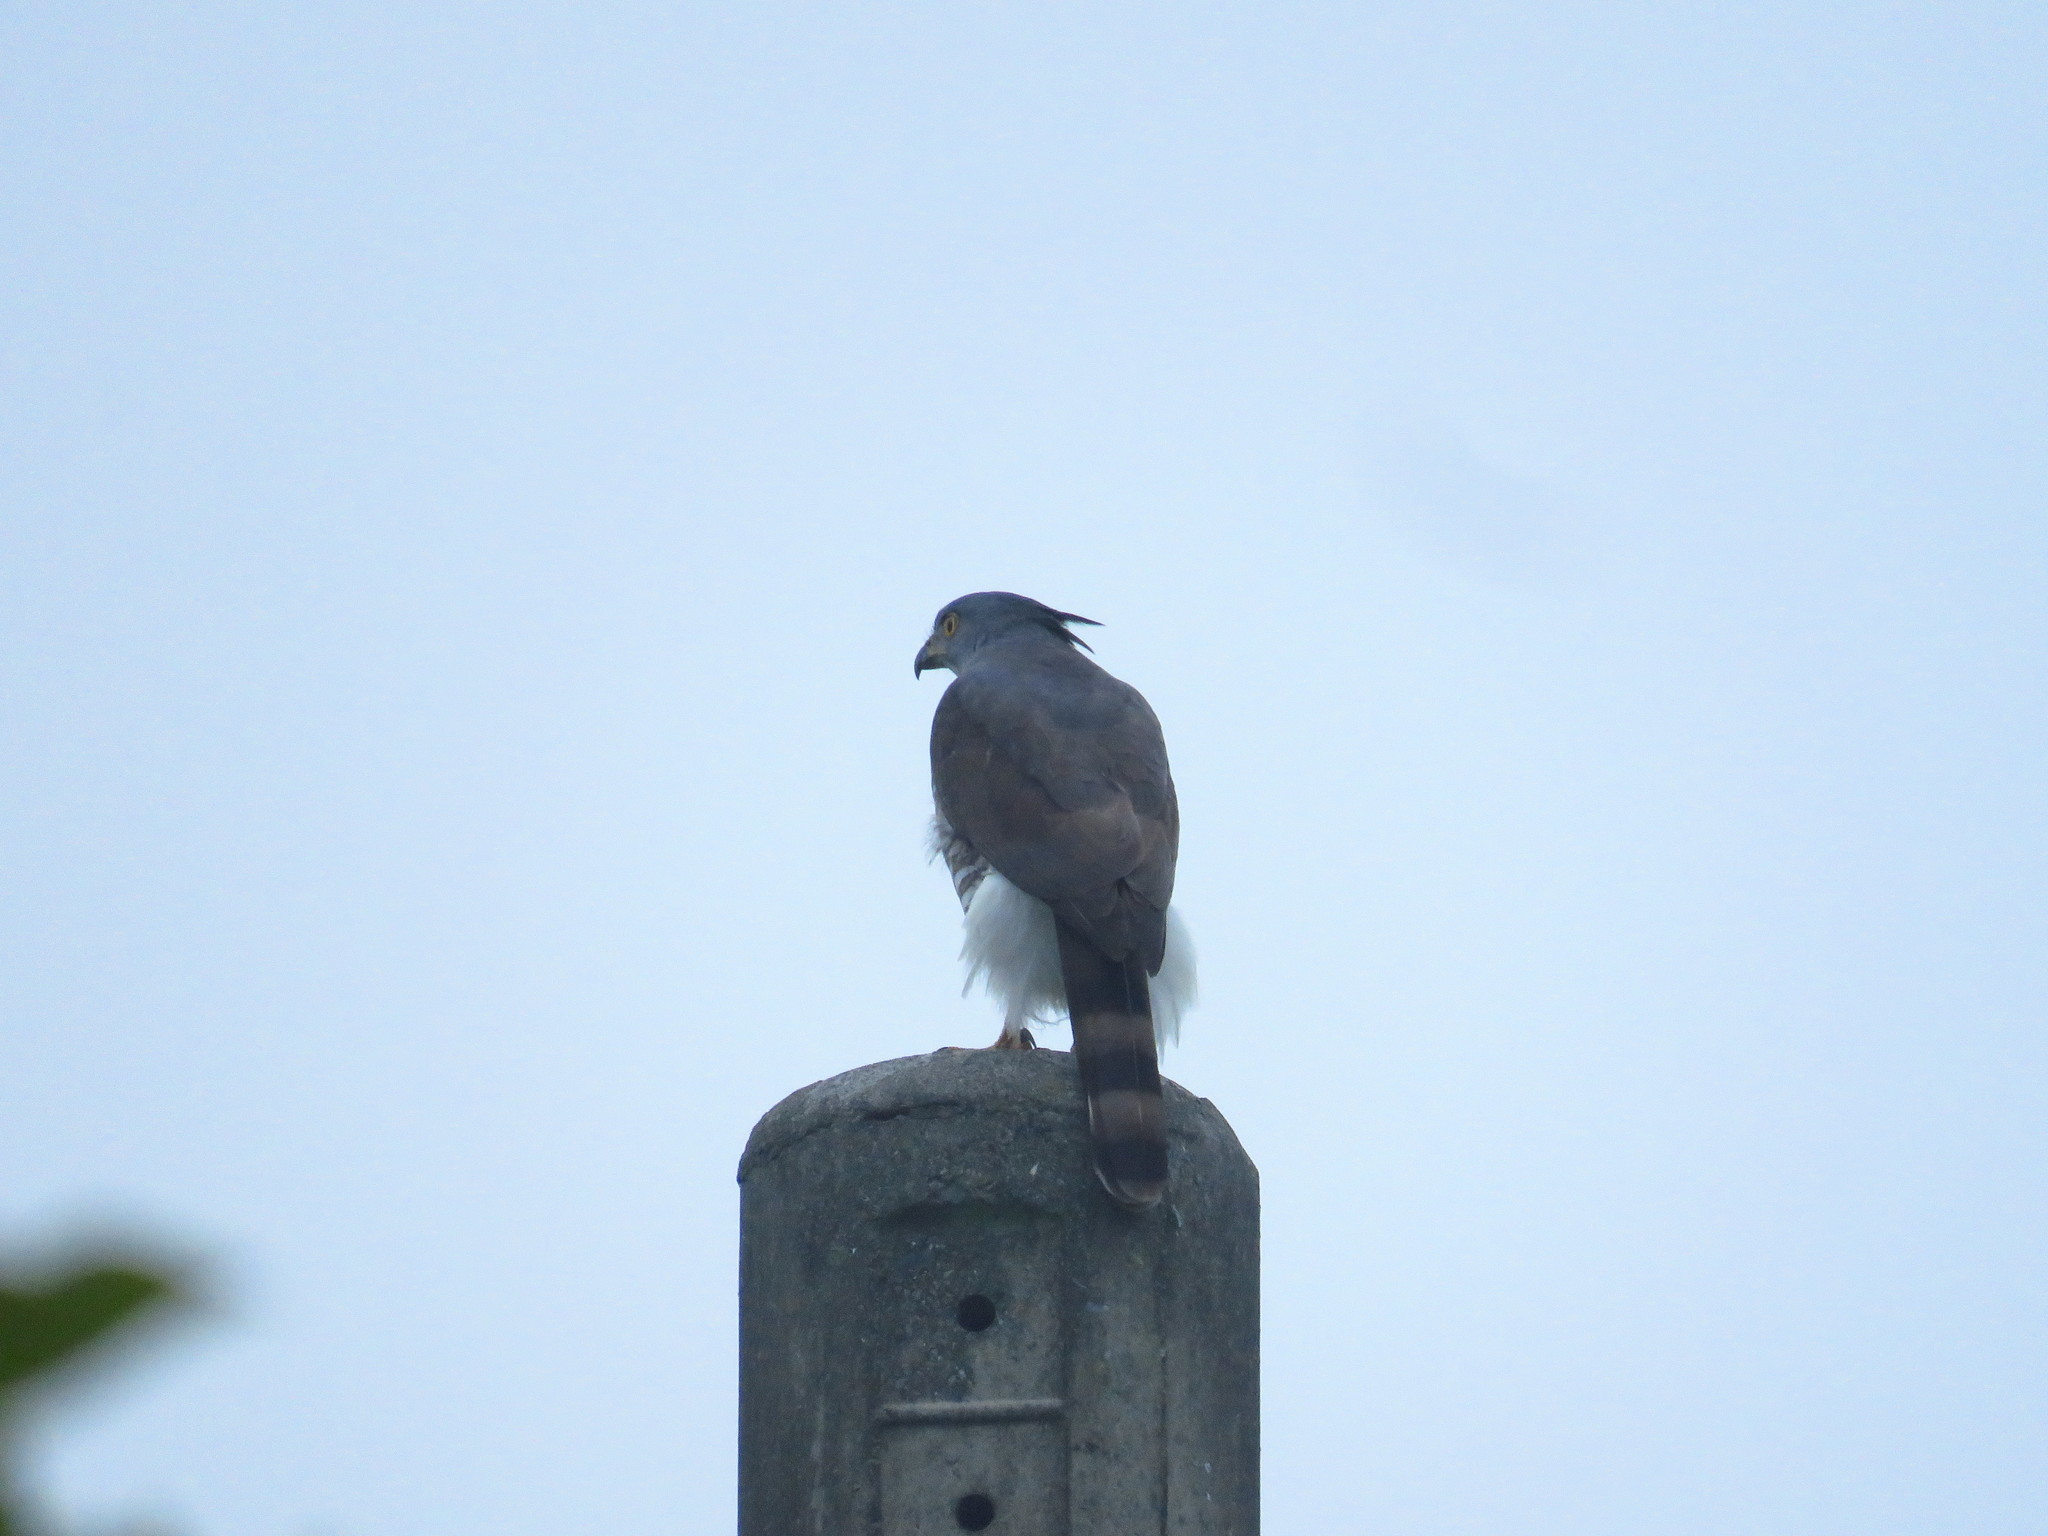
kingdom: Animalia
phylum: Chordata
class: Aves
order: Accipitriformes
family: Accipitridae
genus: Accipiter
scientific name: Accipiter trivirgatus
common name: Crested goshawk
